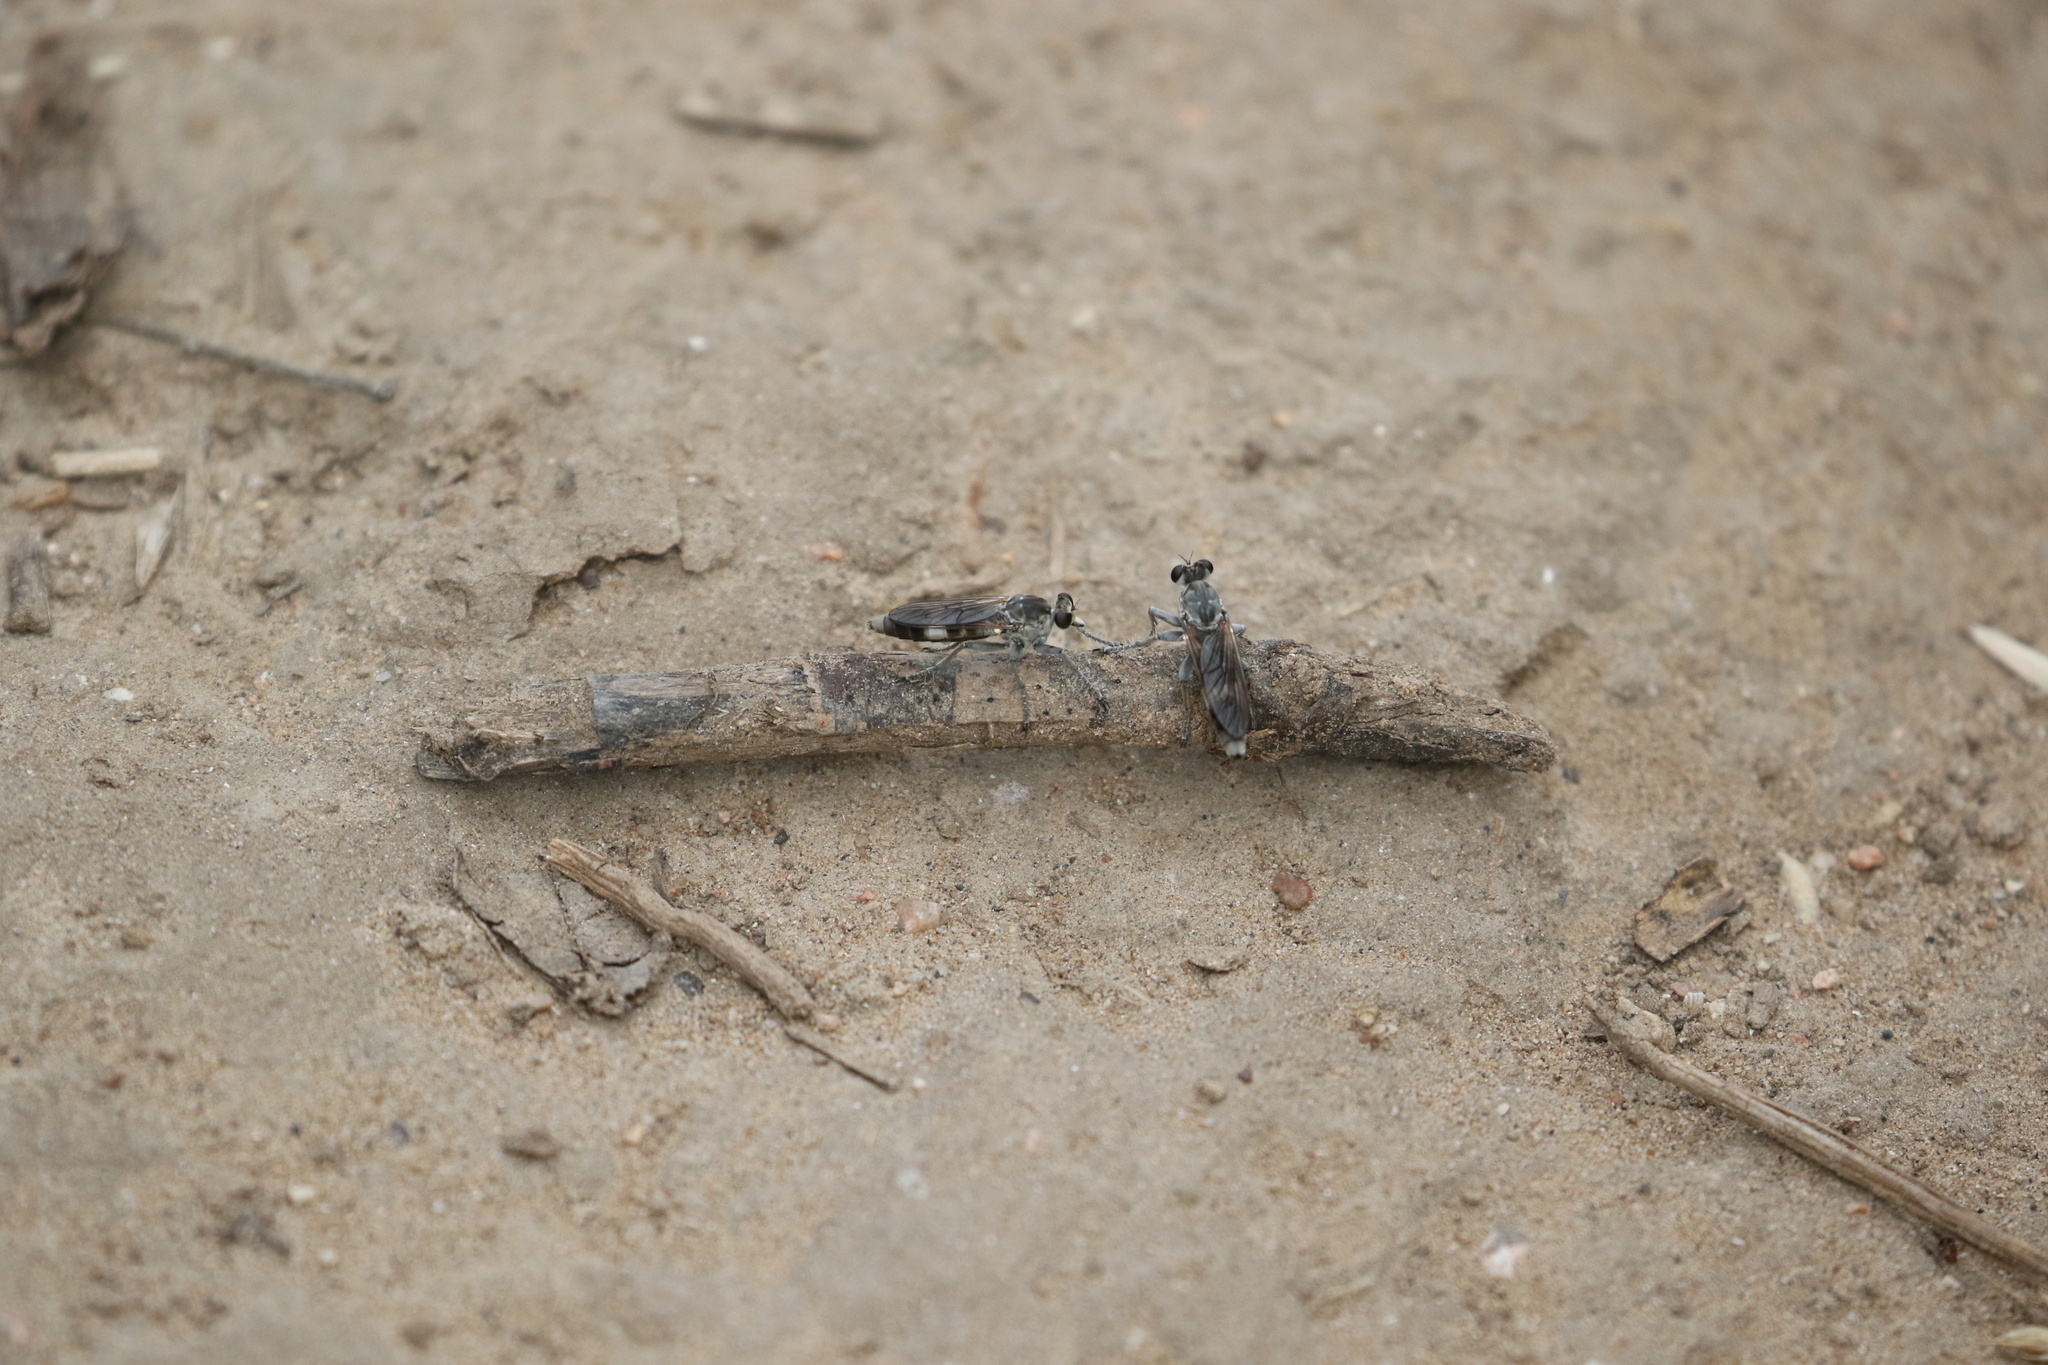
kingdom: Animalia
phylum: Arthropoda
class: Insecta
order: Diptera
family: Asilidae
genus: Stichopogon
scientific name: Stichopogon trifasciatus
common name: Three-banded robber fly
